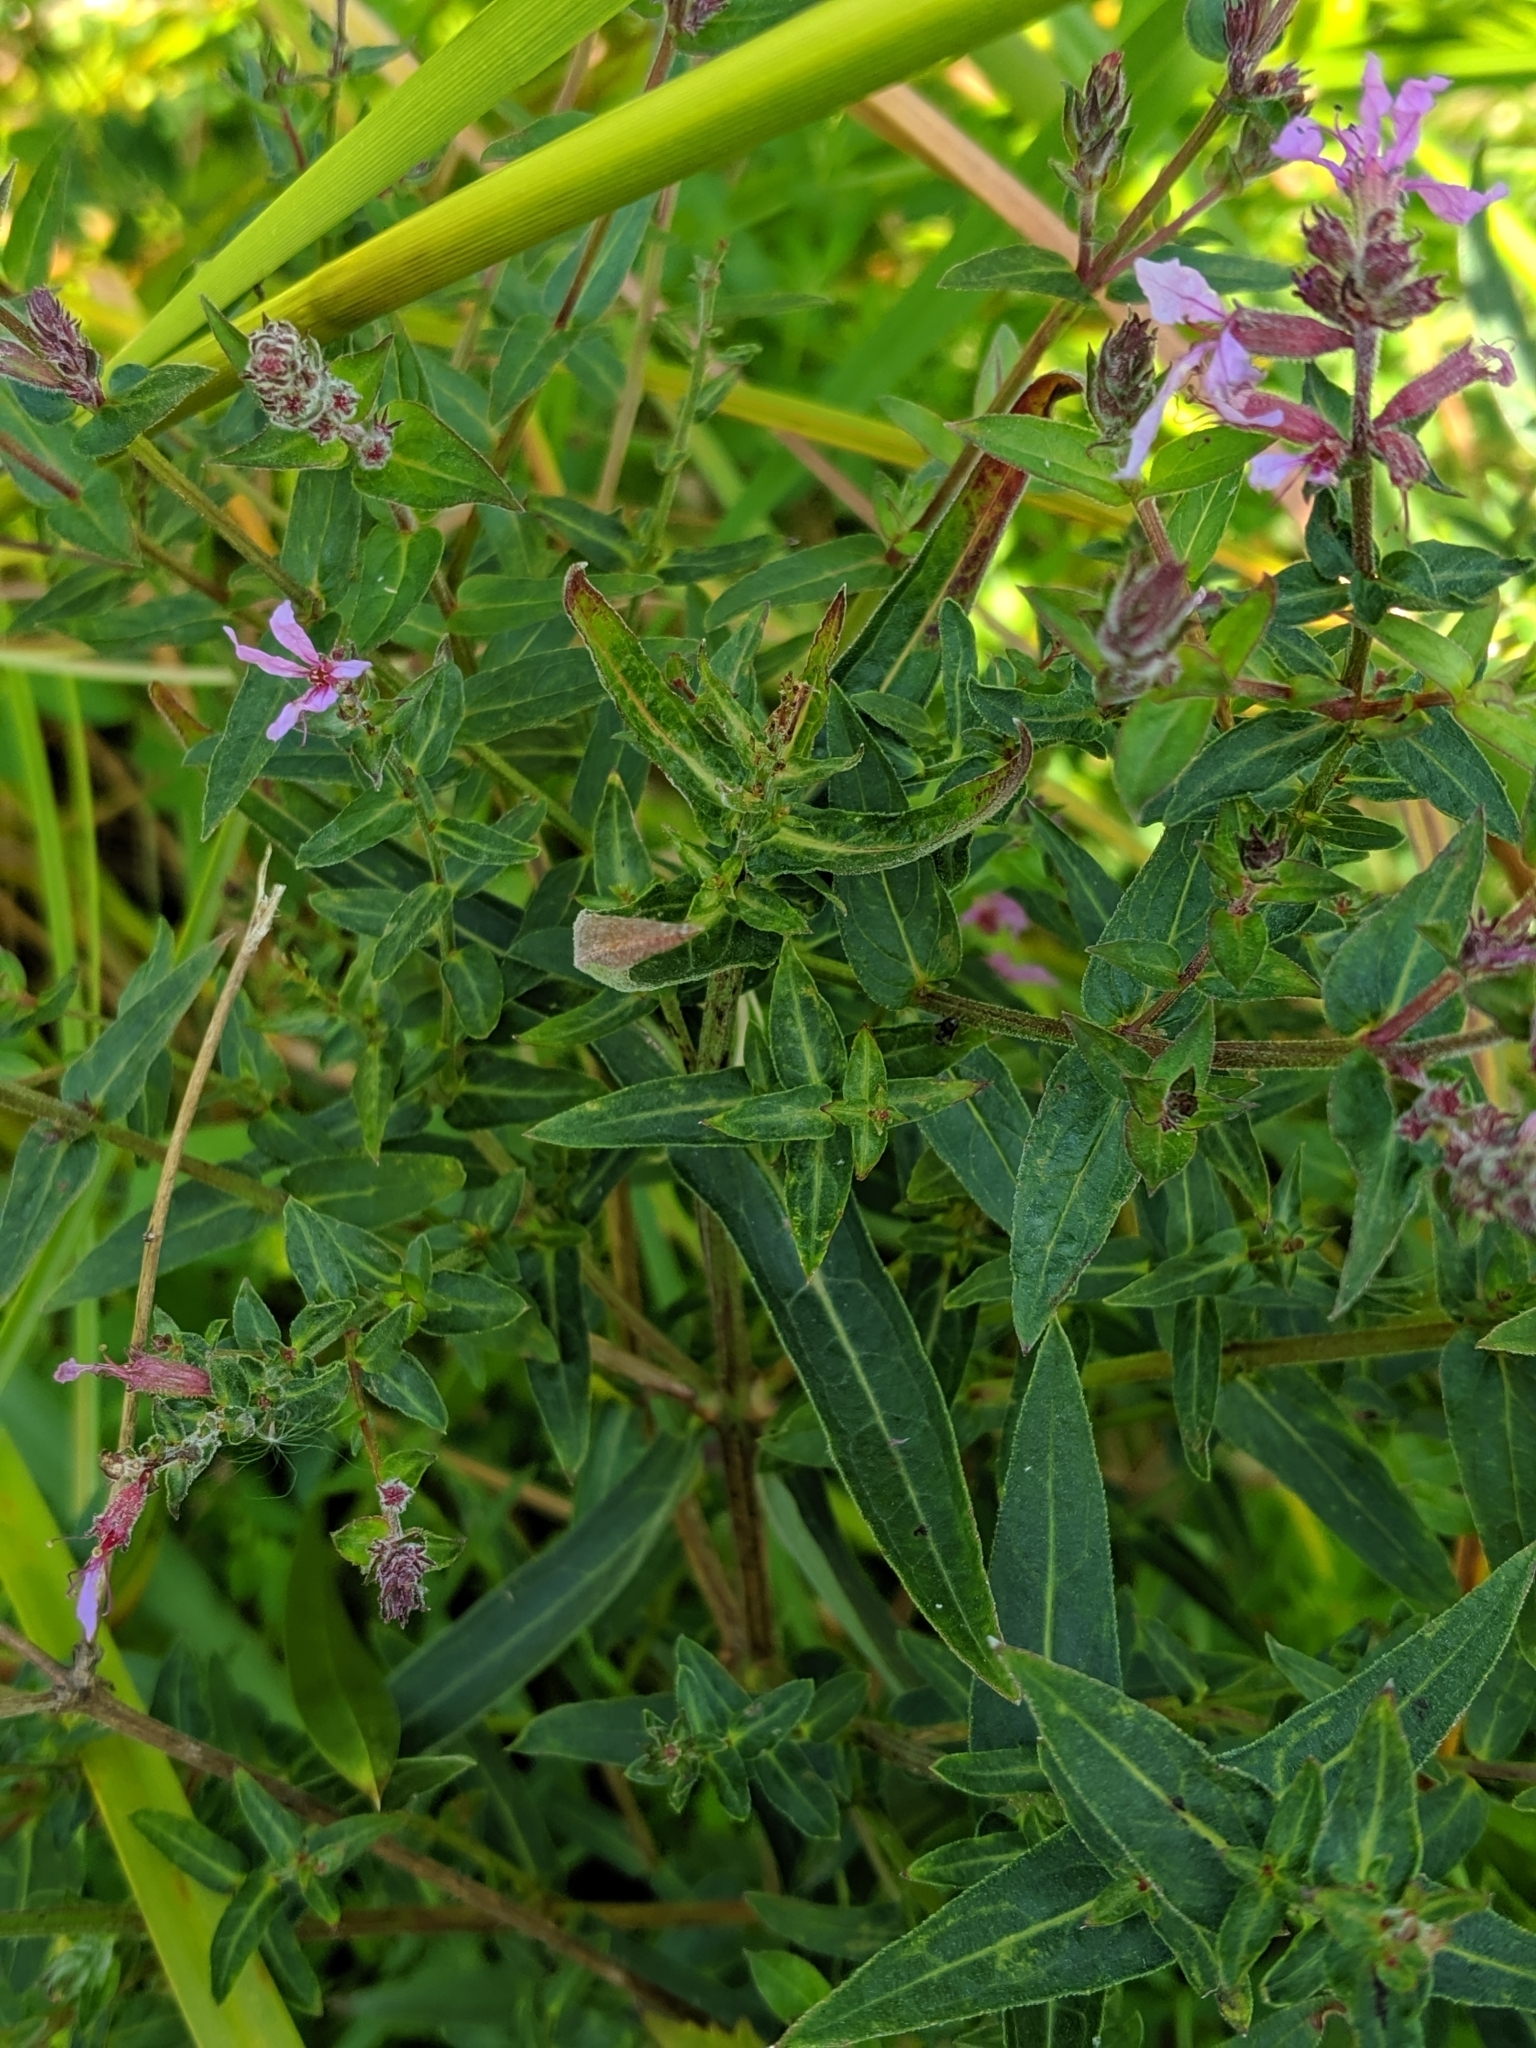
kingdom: Plantae
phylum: Tracheophyta
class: Magnoliopsida
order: Myrtales
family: Lythraceae
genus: Lythrum
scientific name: Lythrum salicaria
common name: Purple loosestrife
